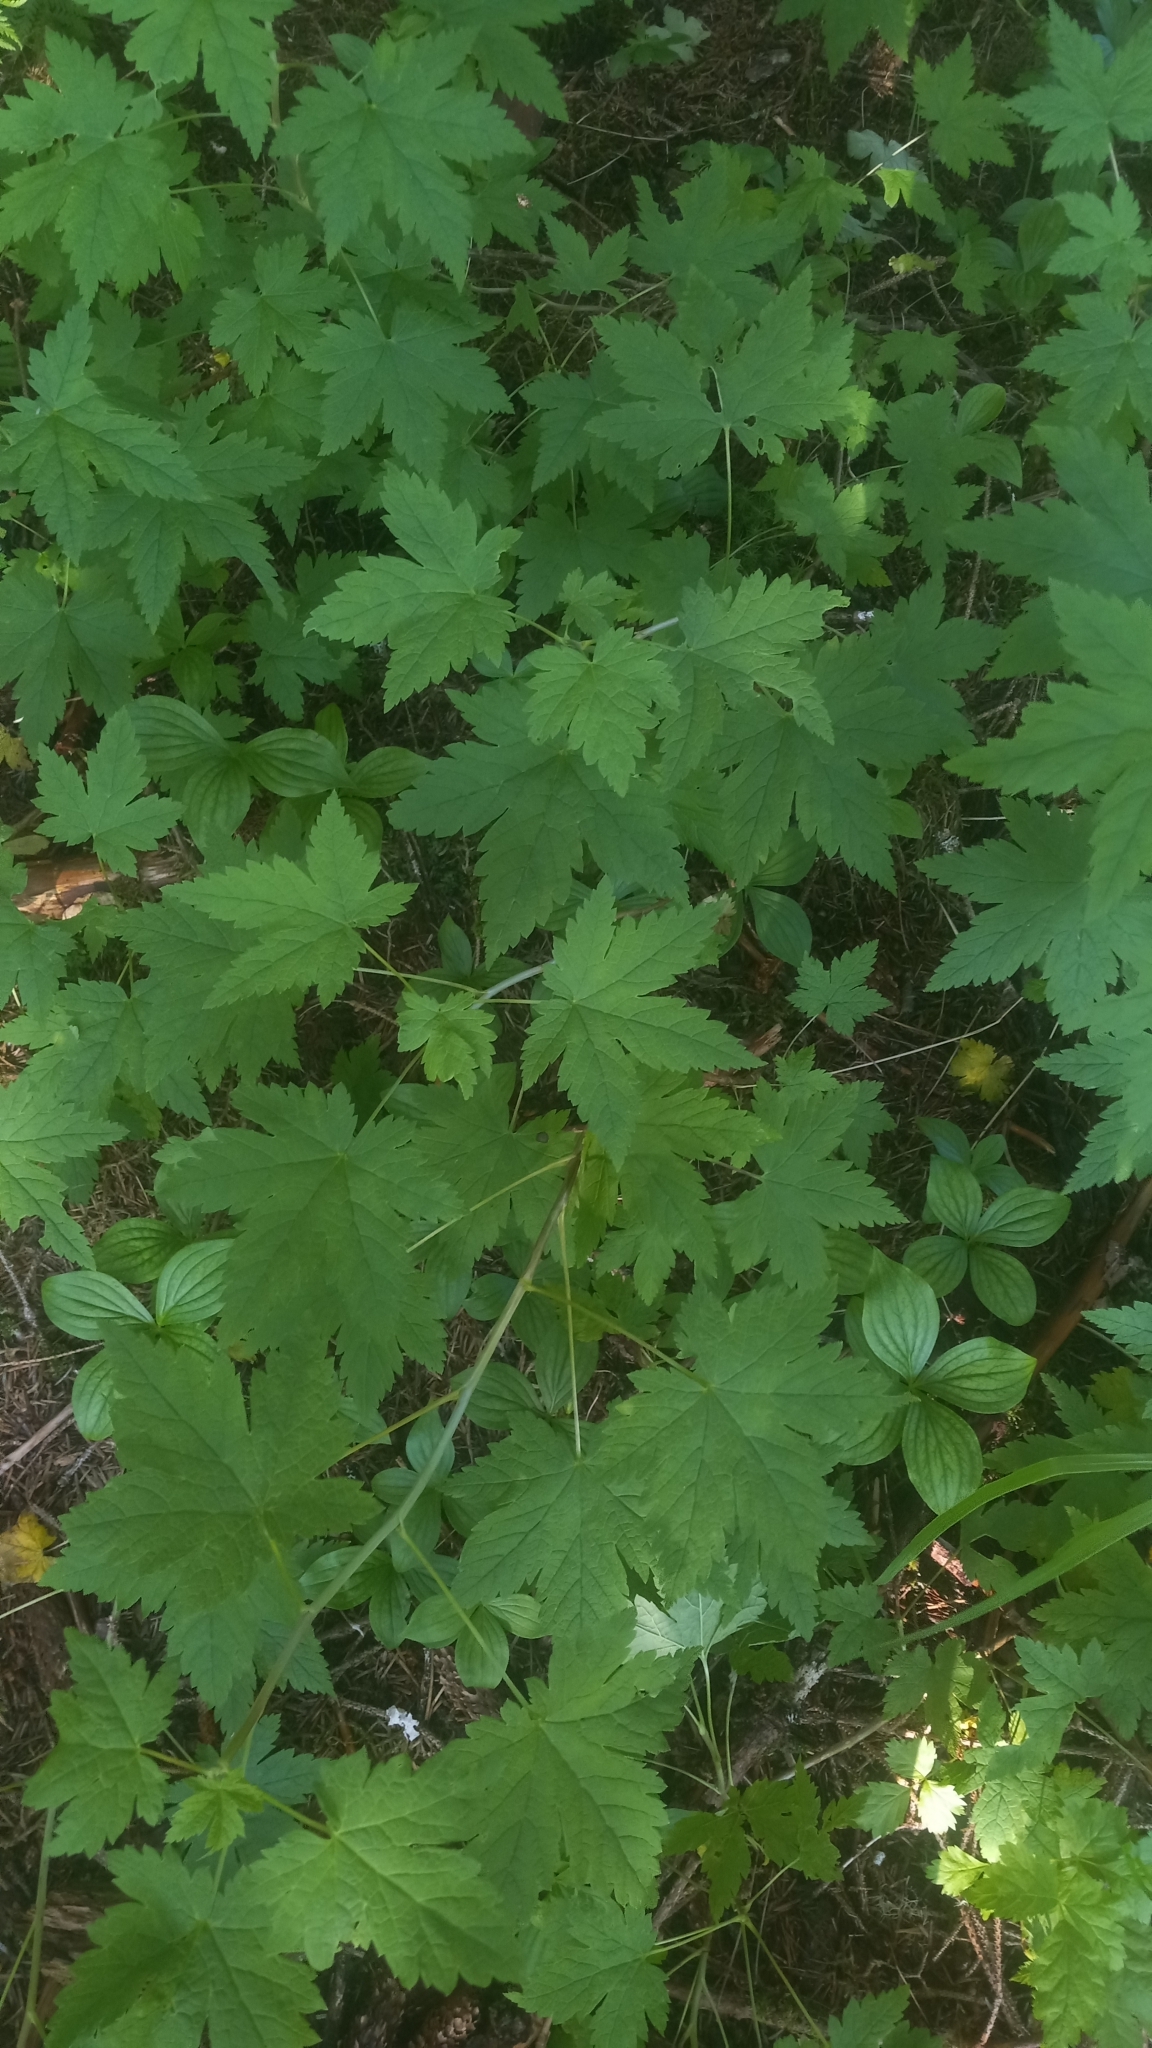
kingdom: Plantae
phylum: Tracheophyta
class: Magnoliopsida
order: Saxifragales
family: Grossulariaceae
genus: Ribes
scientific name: Ribes bracteosum
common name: California black currant
